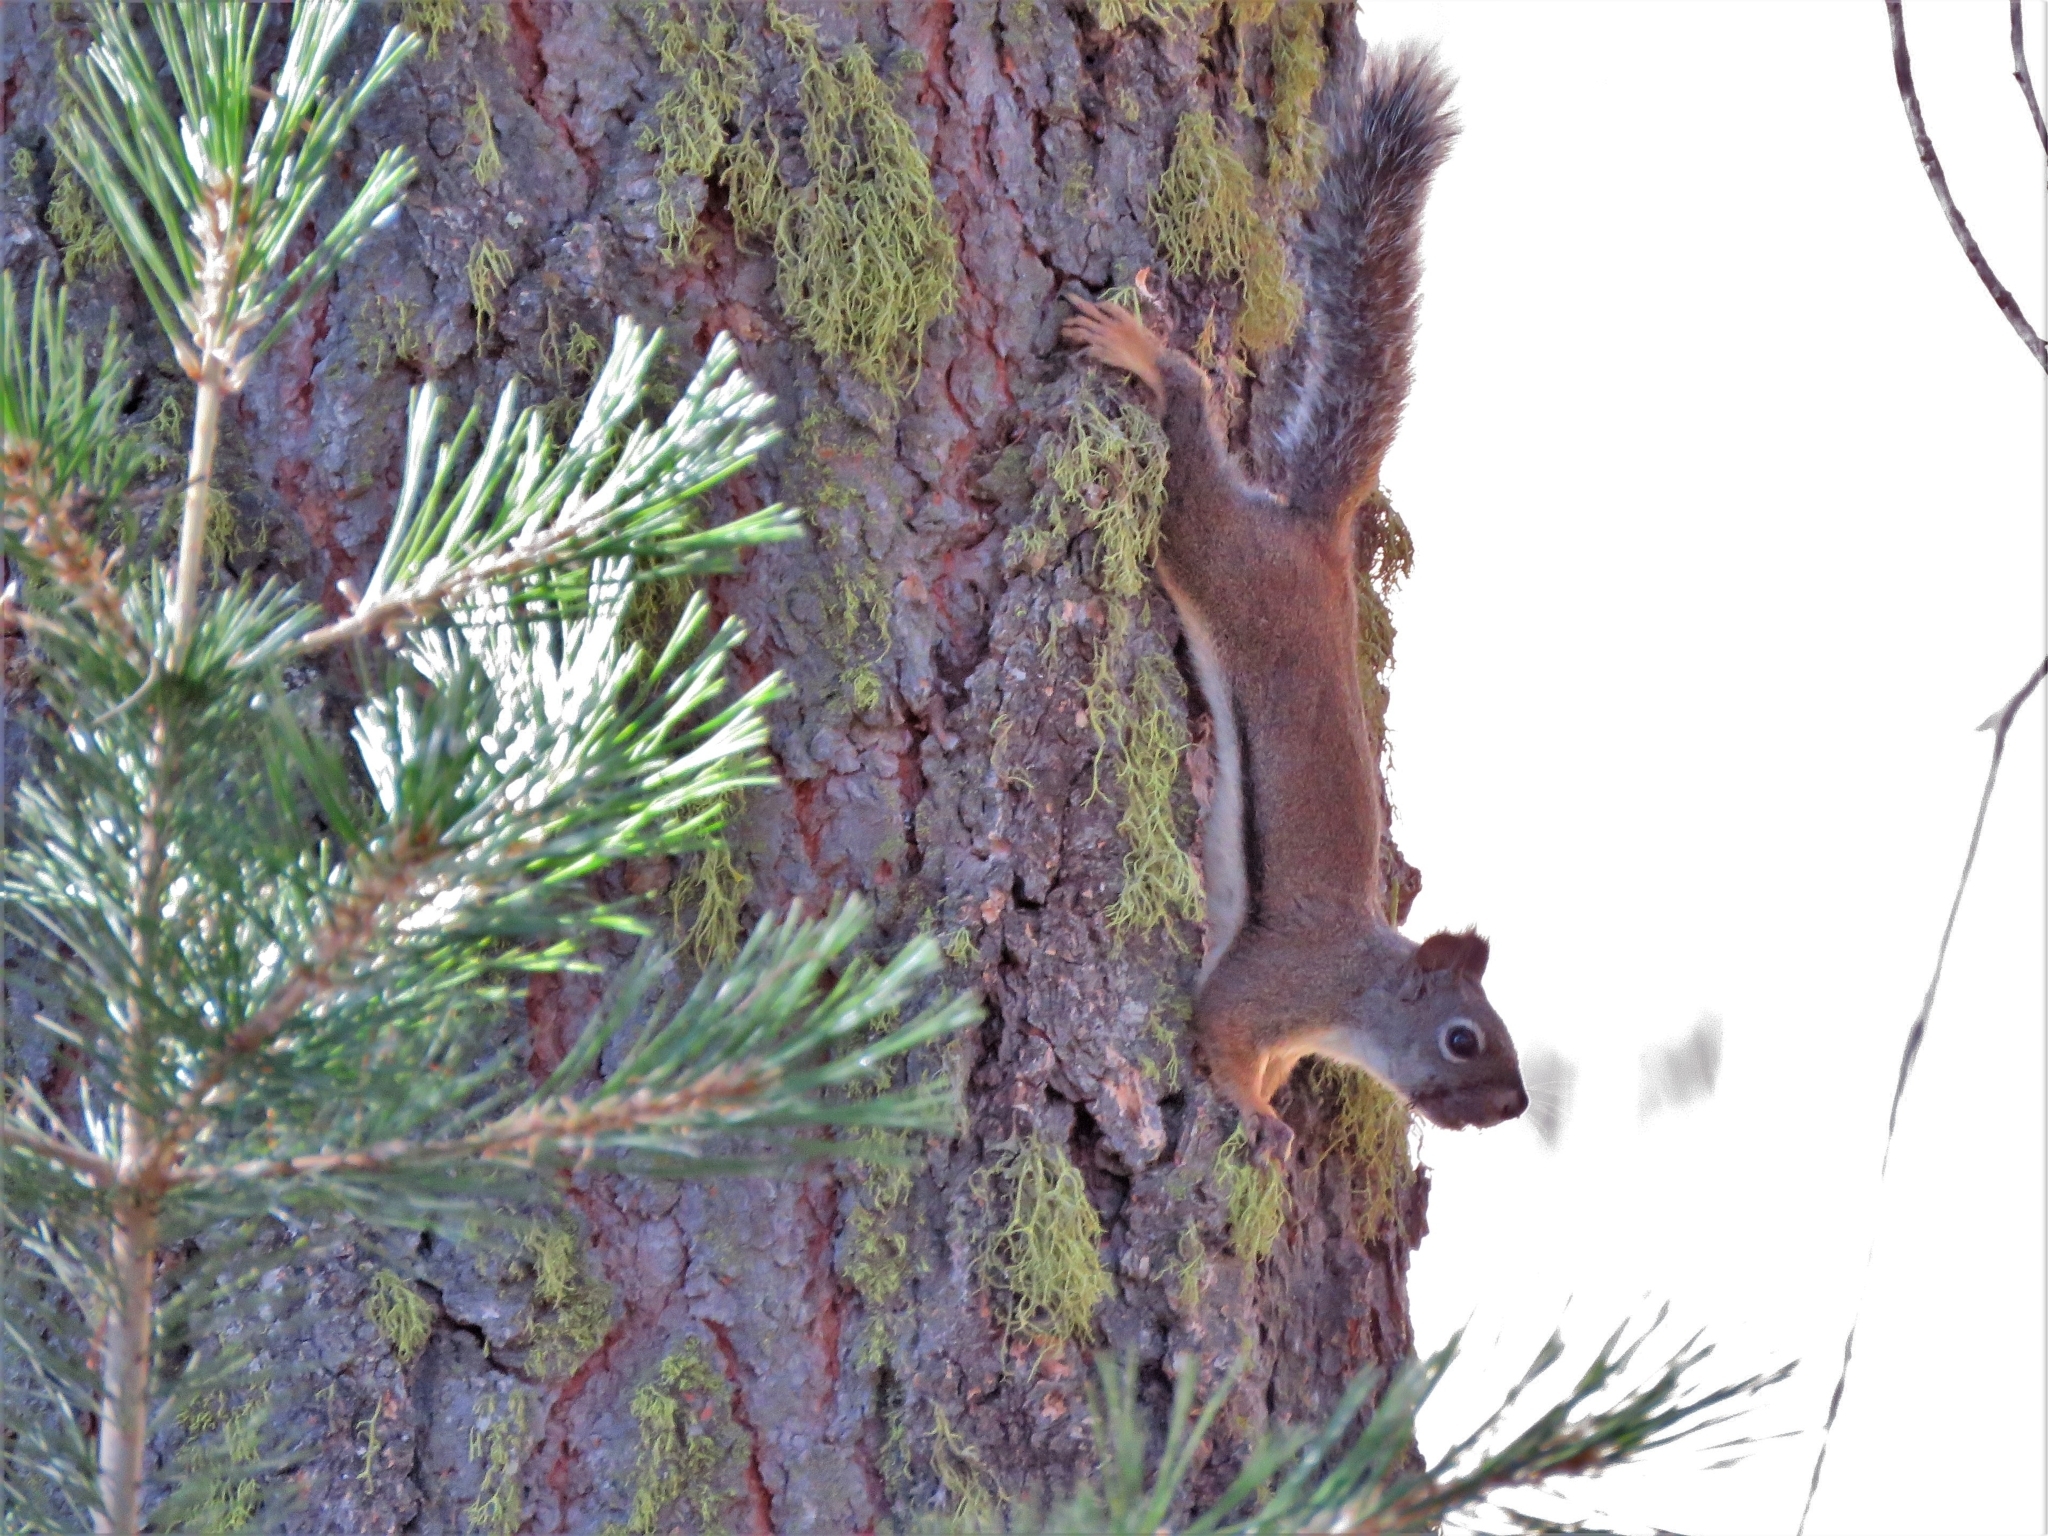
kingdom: Animalia
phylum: Chordata
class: Mammalia
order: Rodentia
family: Sciuridae
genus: Tamiasciurus
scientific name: Tamiasciurus douglasii
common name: Douglas's squirrel
